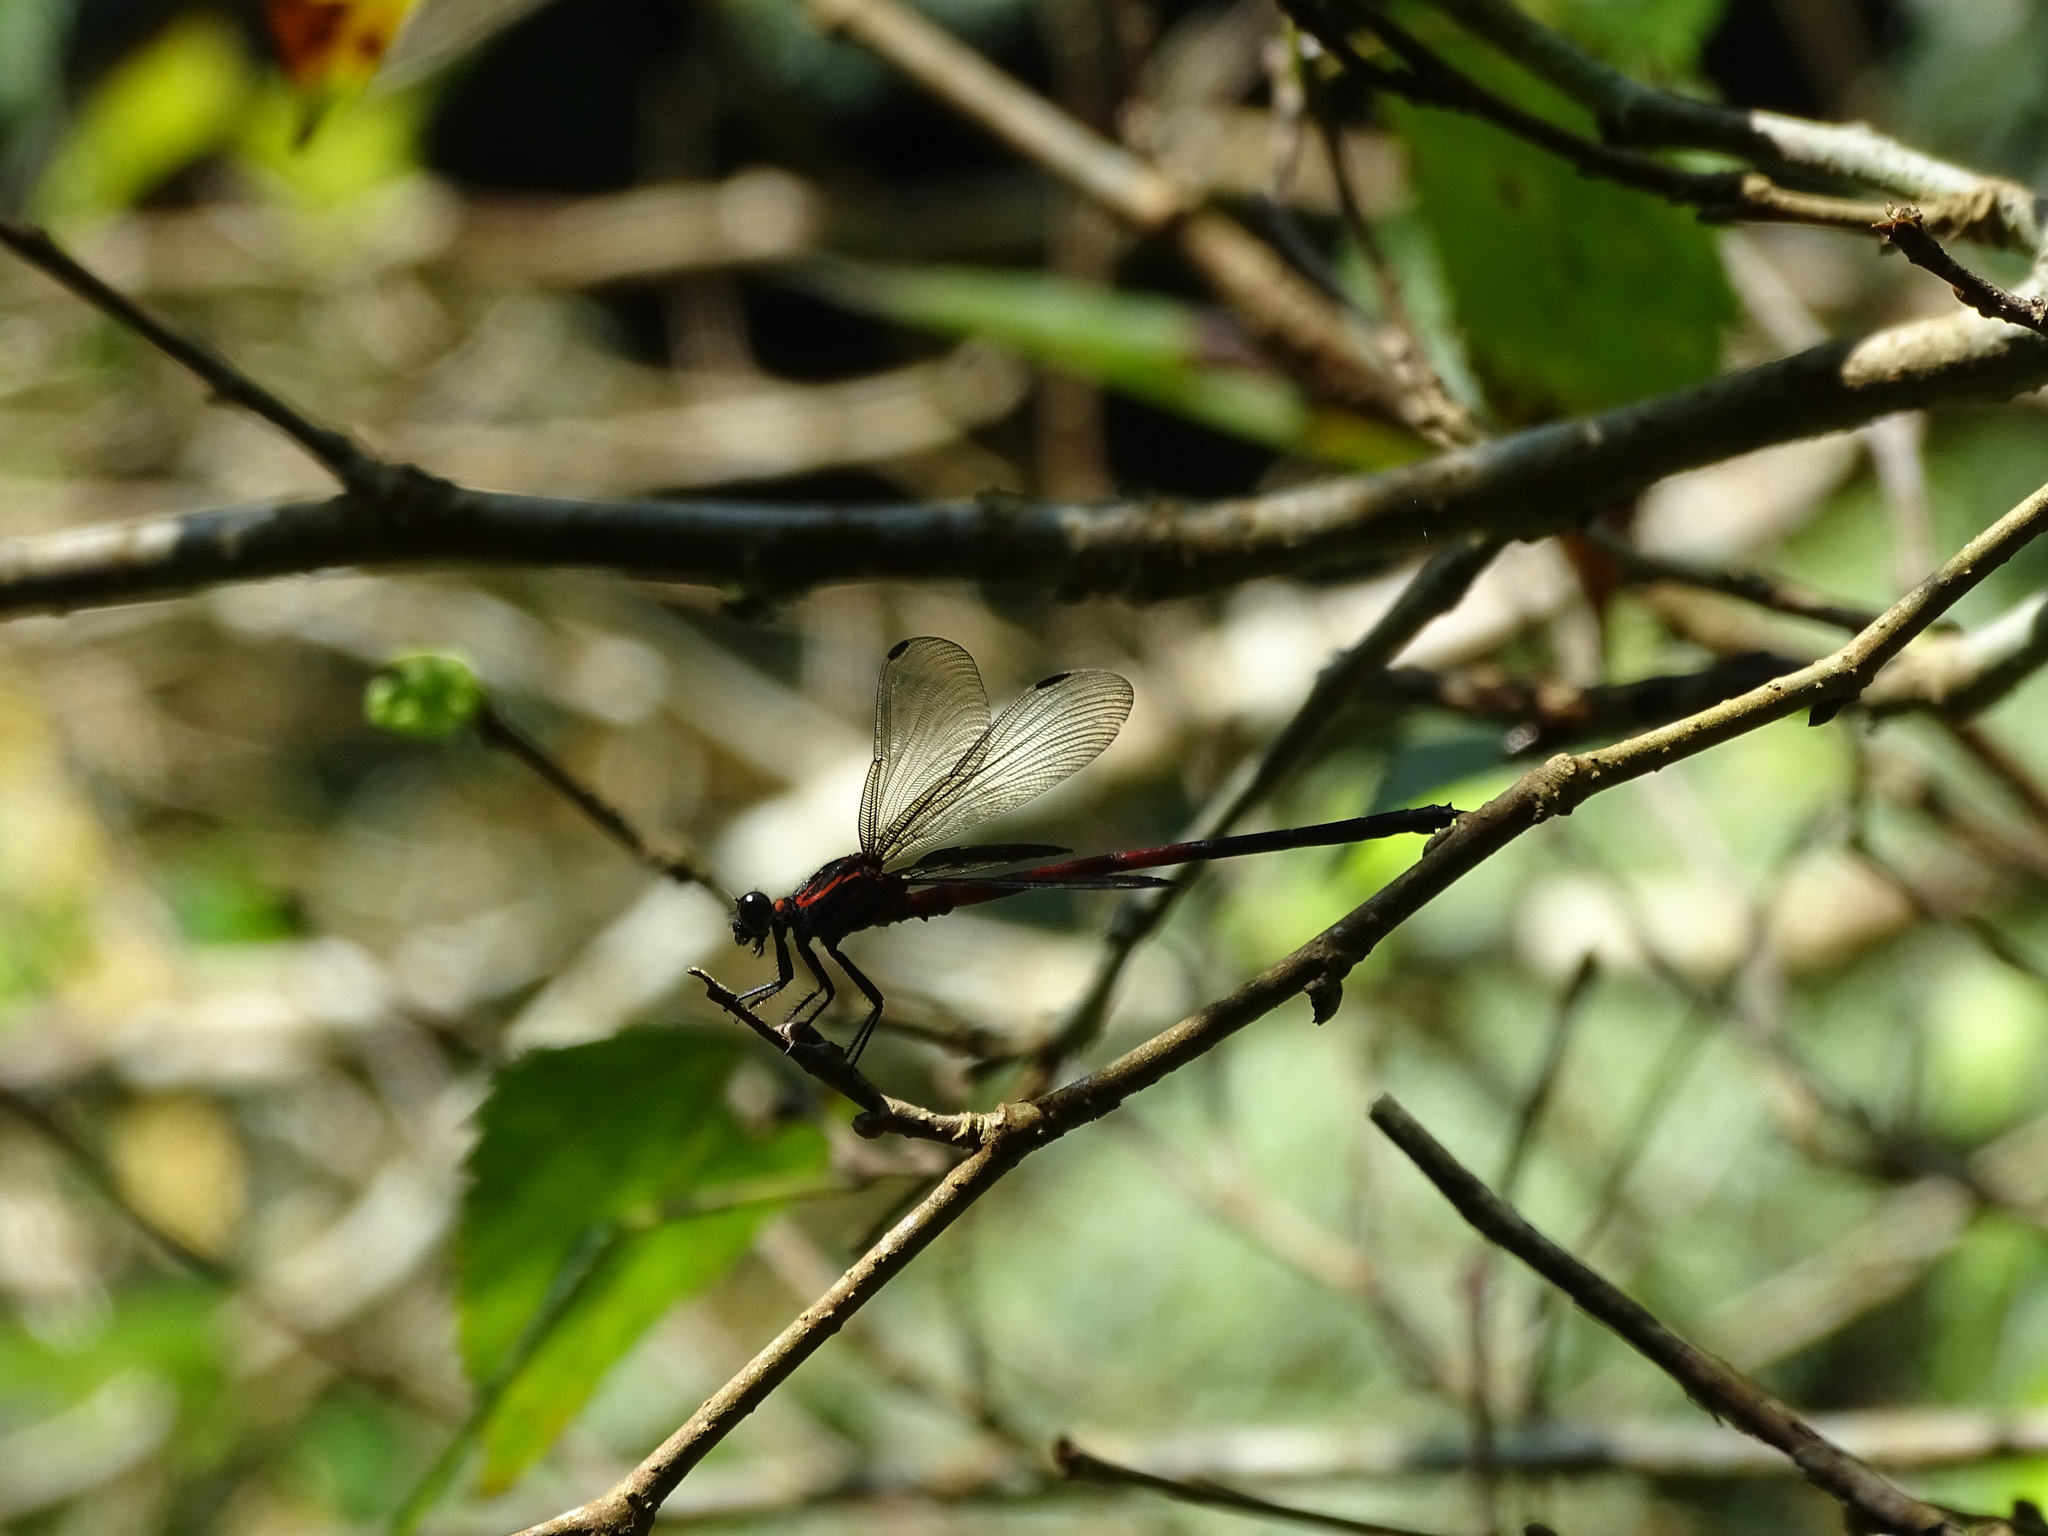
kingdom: Animalia
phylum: Arthropoda
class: Insecta
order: Odonata
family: Euphaeidae
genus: Euphaea
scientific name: Euphaea formosa
